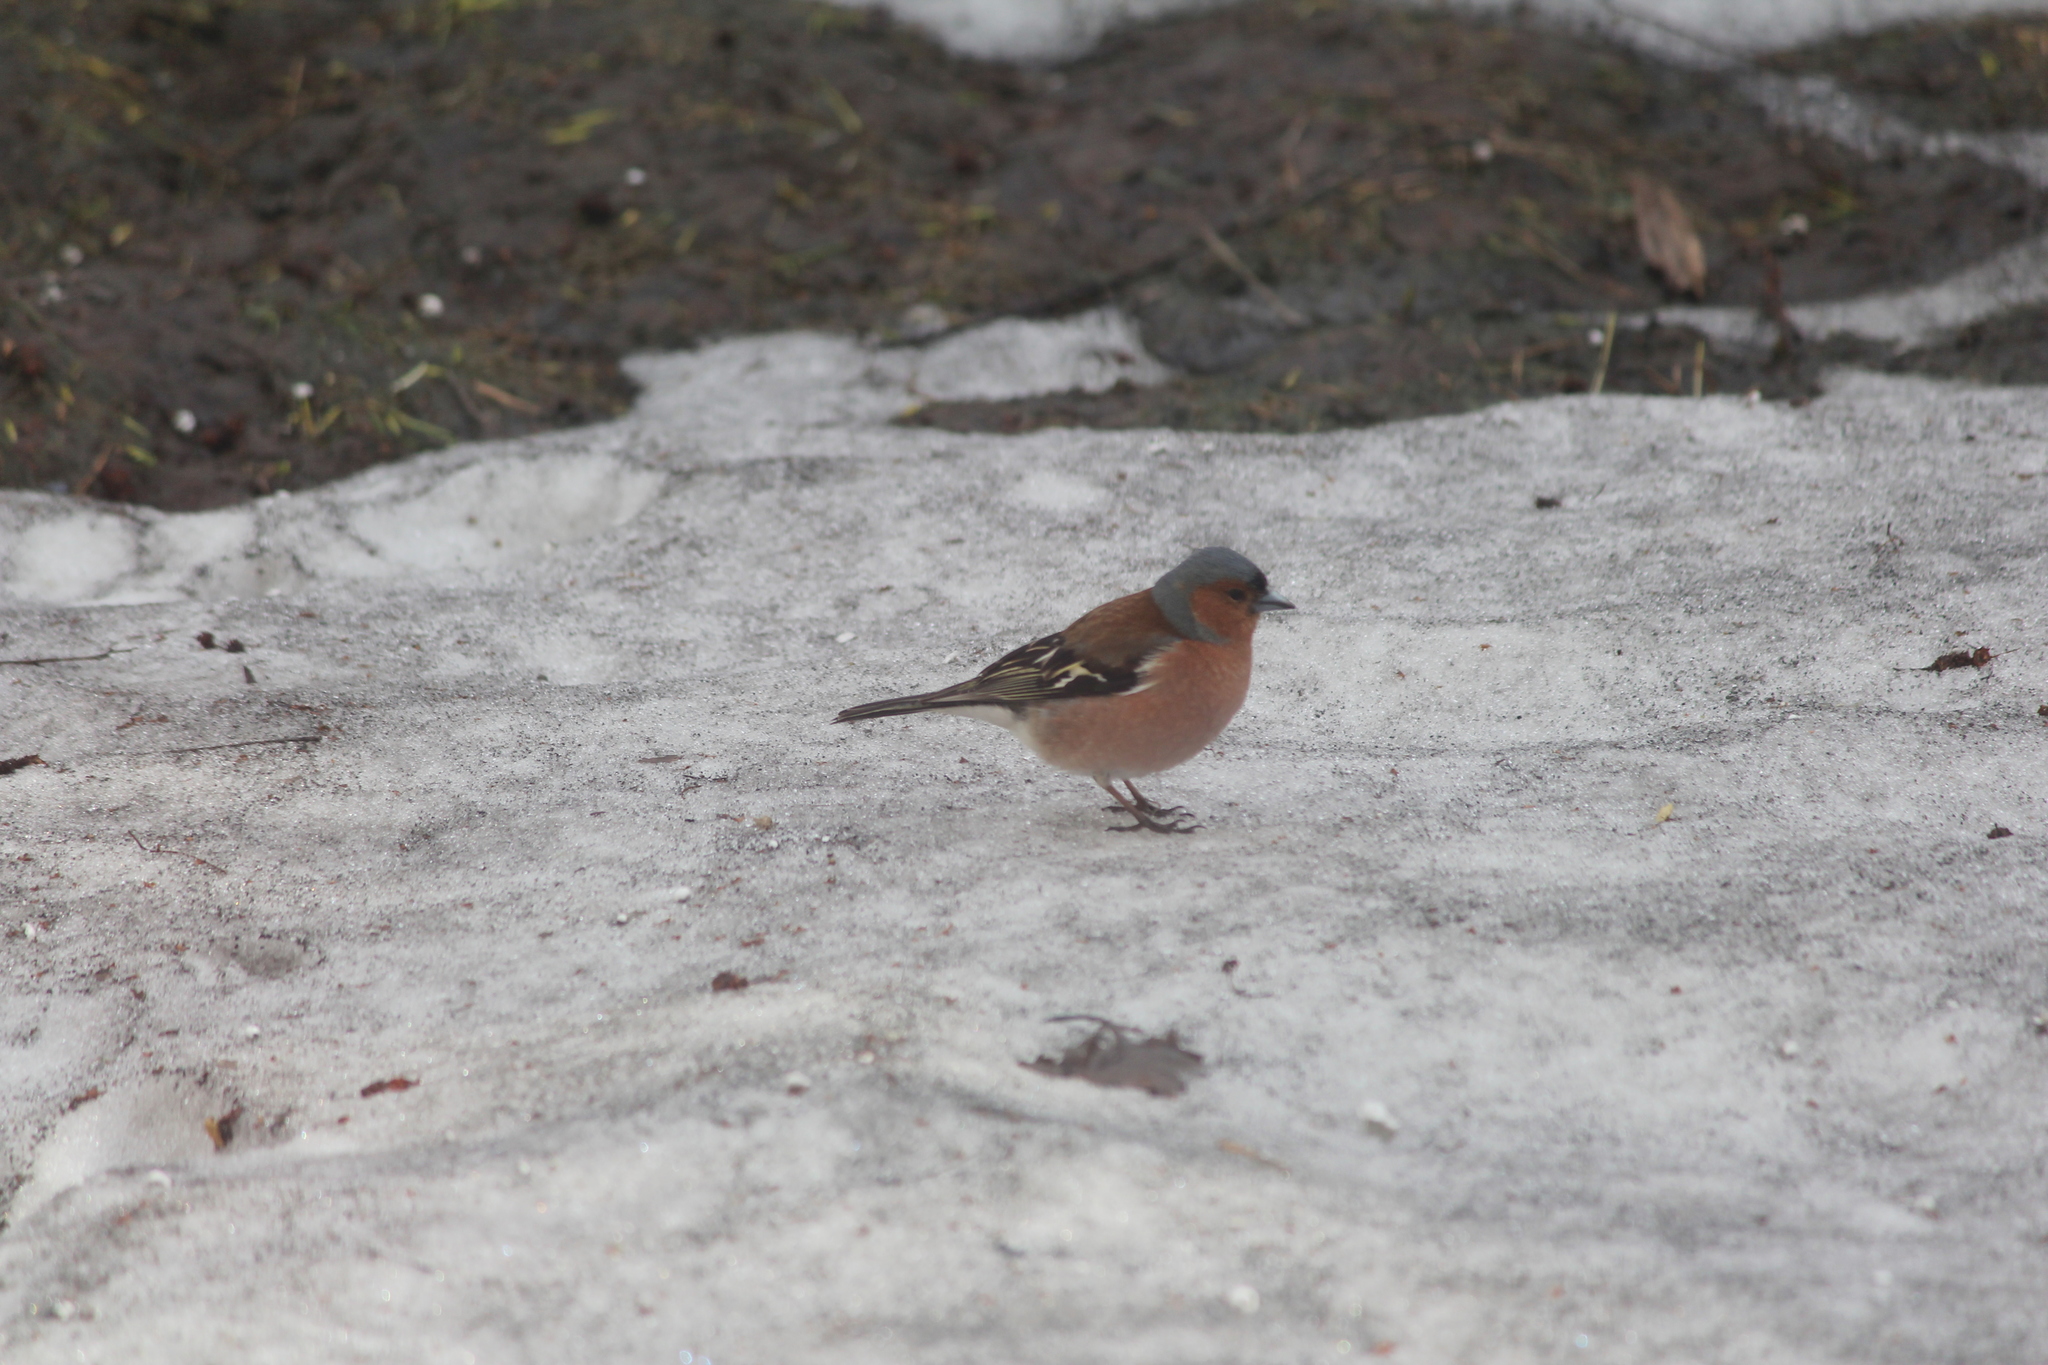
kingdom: Animalia
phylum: Chordata
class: Aves
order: Passeriformes
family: Fringillidae
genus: Fringilla
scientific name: Fringilla coelebs
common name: Common chaffinch
